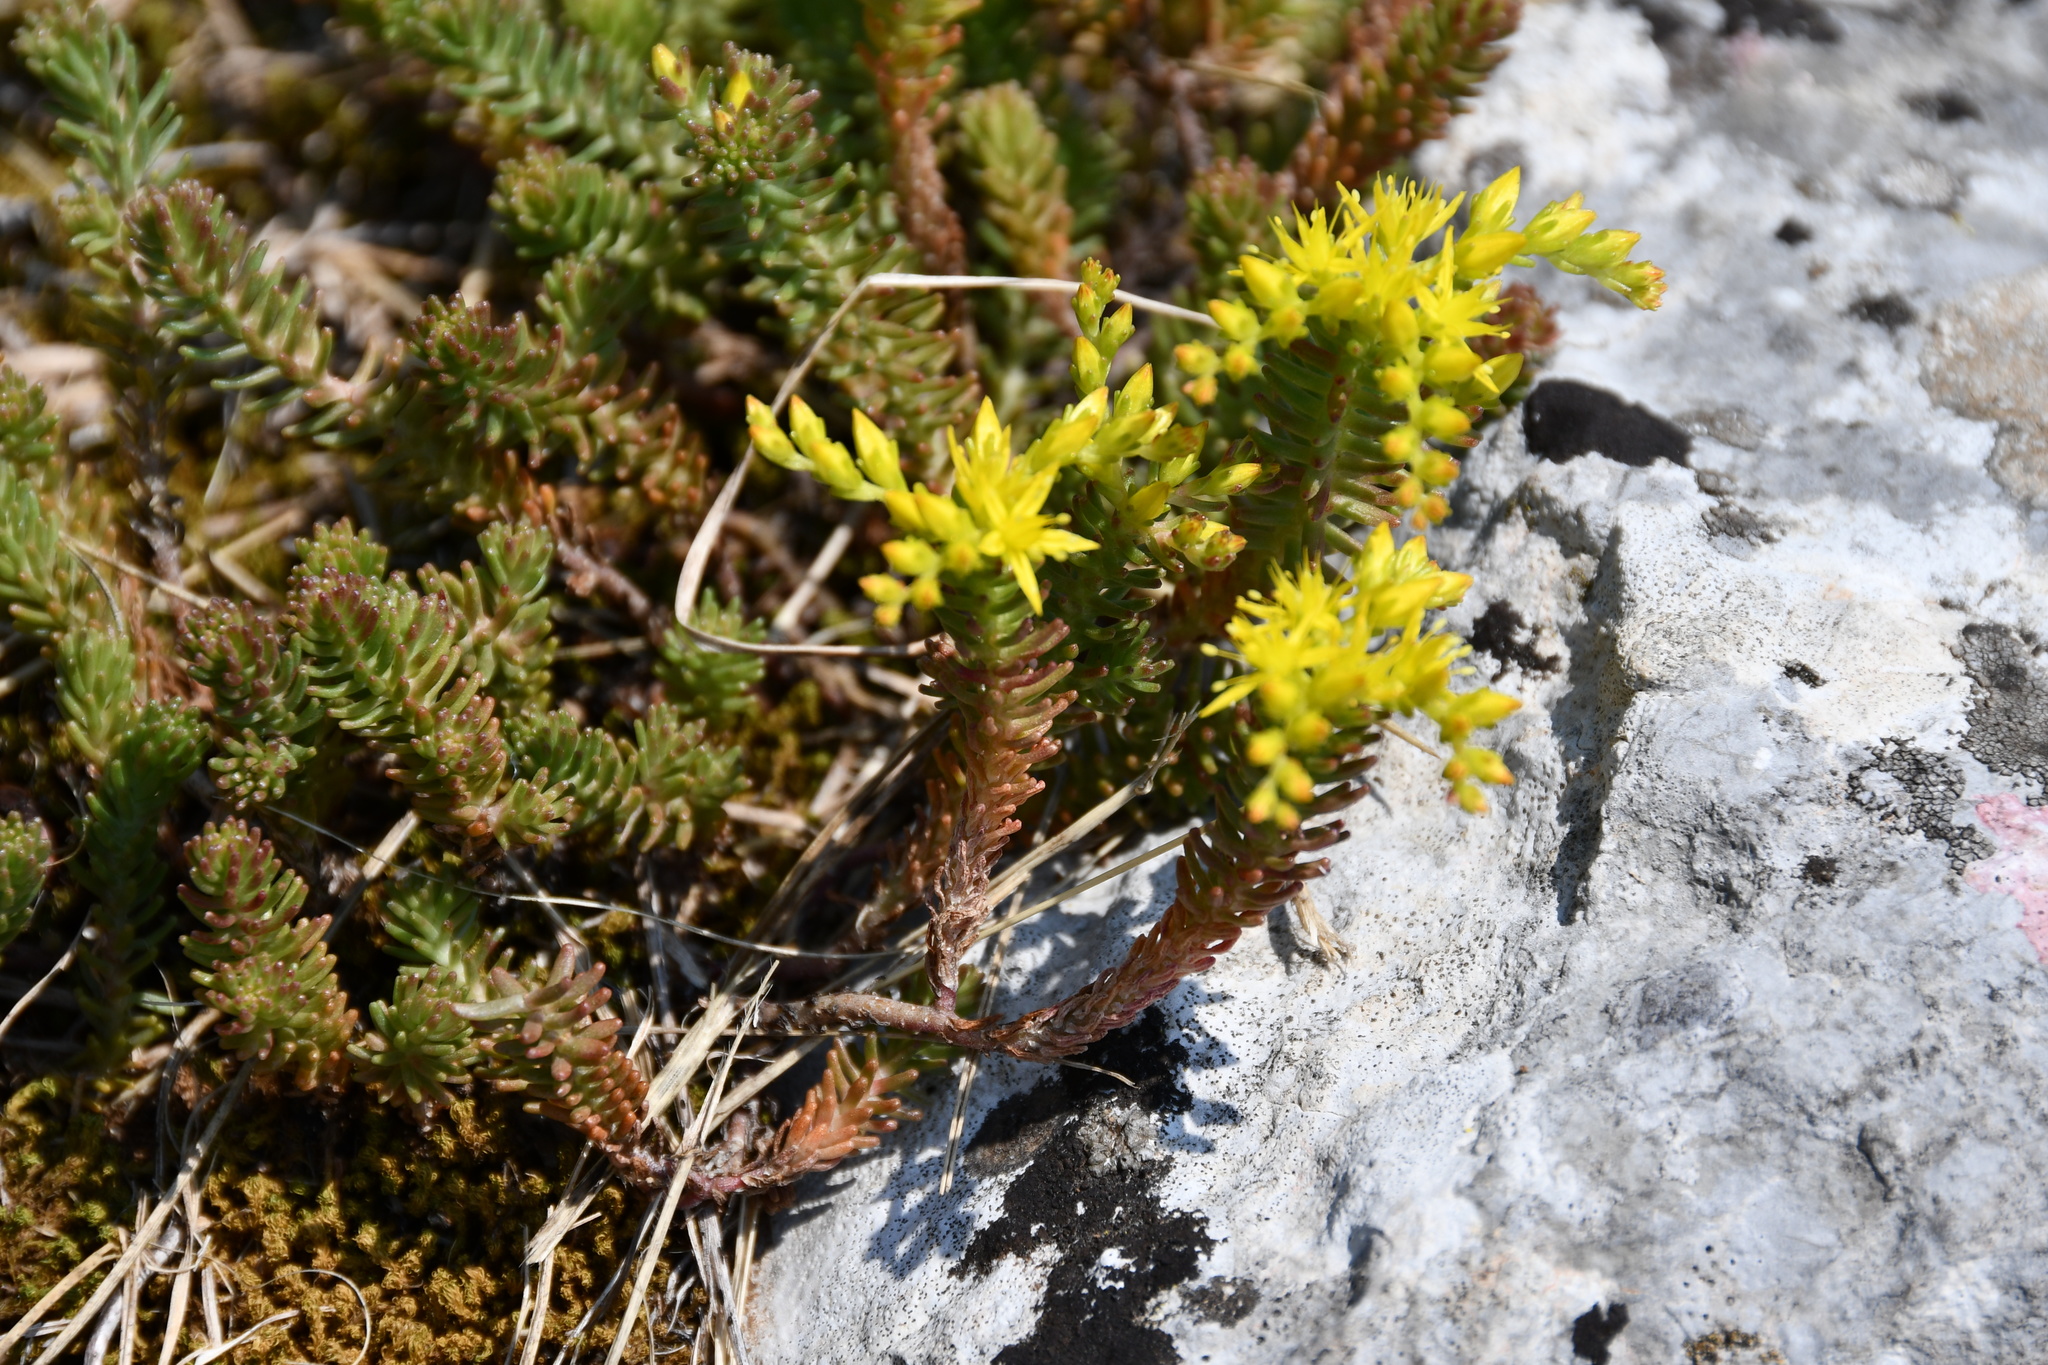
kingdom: Plantae
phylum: Tracheophyta
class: Magnoliopsida
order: Saxifragales
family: Crassulaceae
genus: Sedum
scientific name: Sedum sexangulare
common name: Tasteless stonecrop
